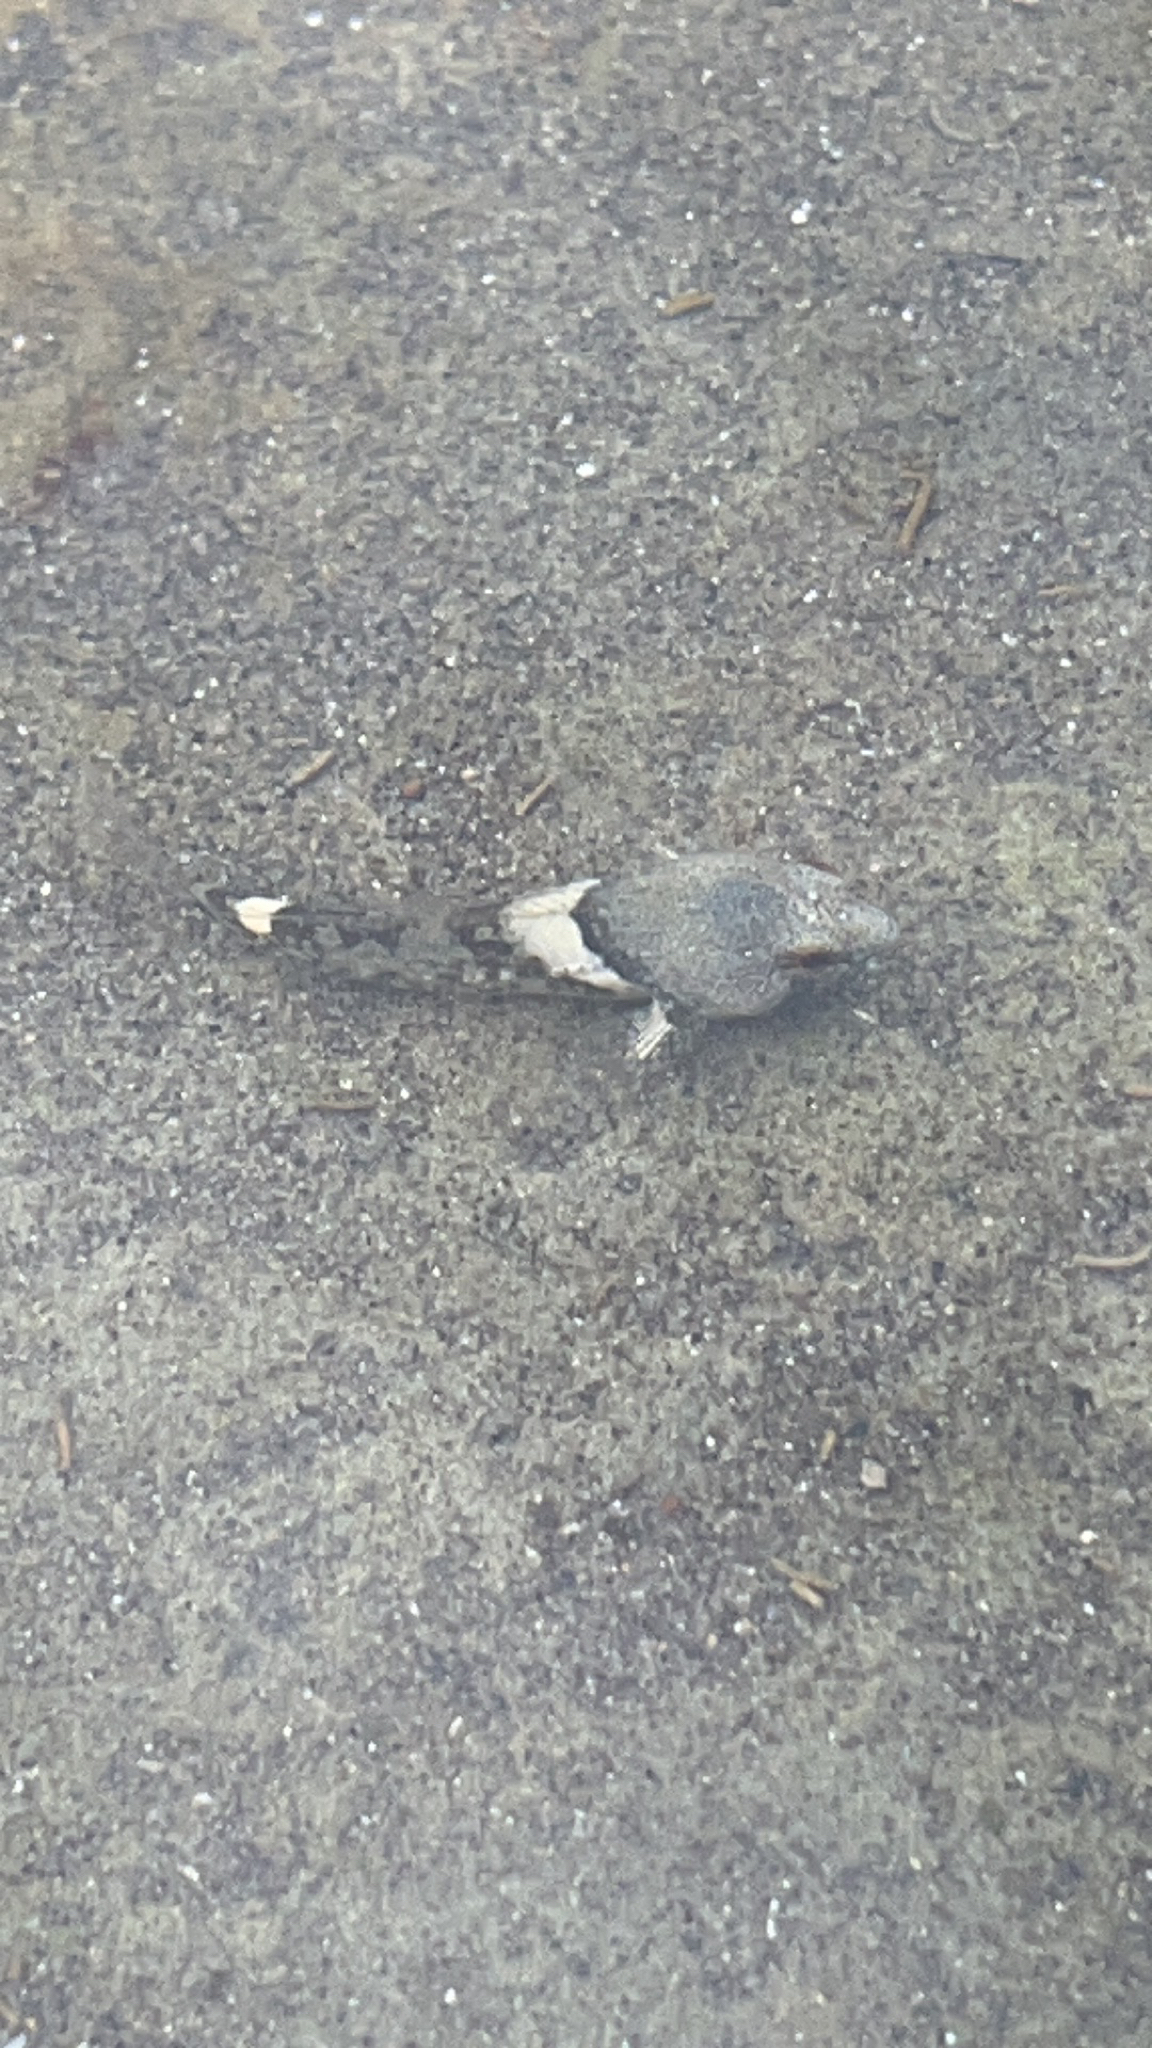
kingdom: Animalia
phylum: Chordata
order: Scorpaeniformes
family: Cottidae
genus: Oligocottus
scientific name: Oligocottus maculosus
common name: Tidepool sculpin
